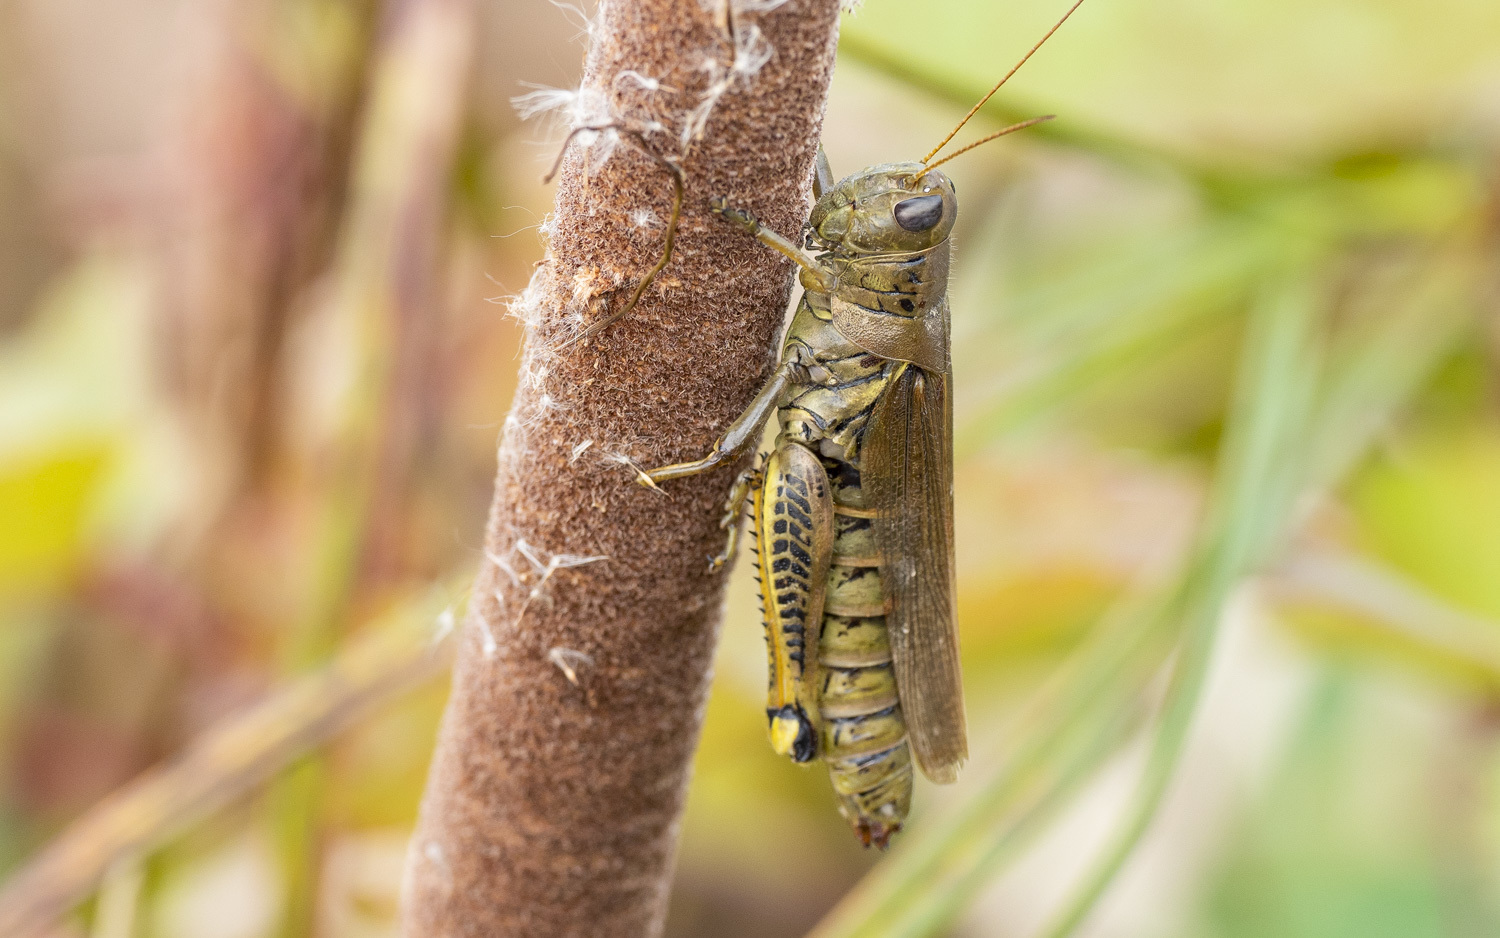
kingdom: Animalia
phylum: Arthropoda
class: Insecta
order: Orthoptera
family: Acrididae
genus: Melanoplus
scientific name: Melanoplus differentialis
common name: Differential grasshopper
